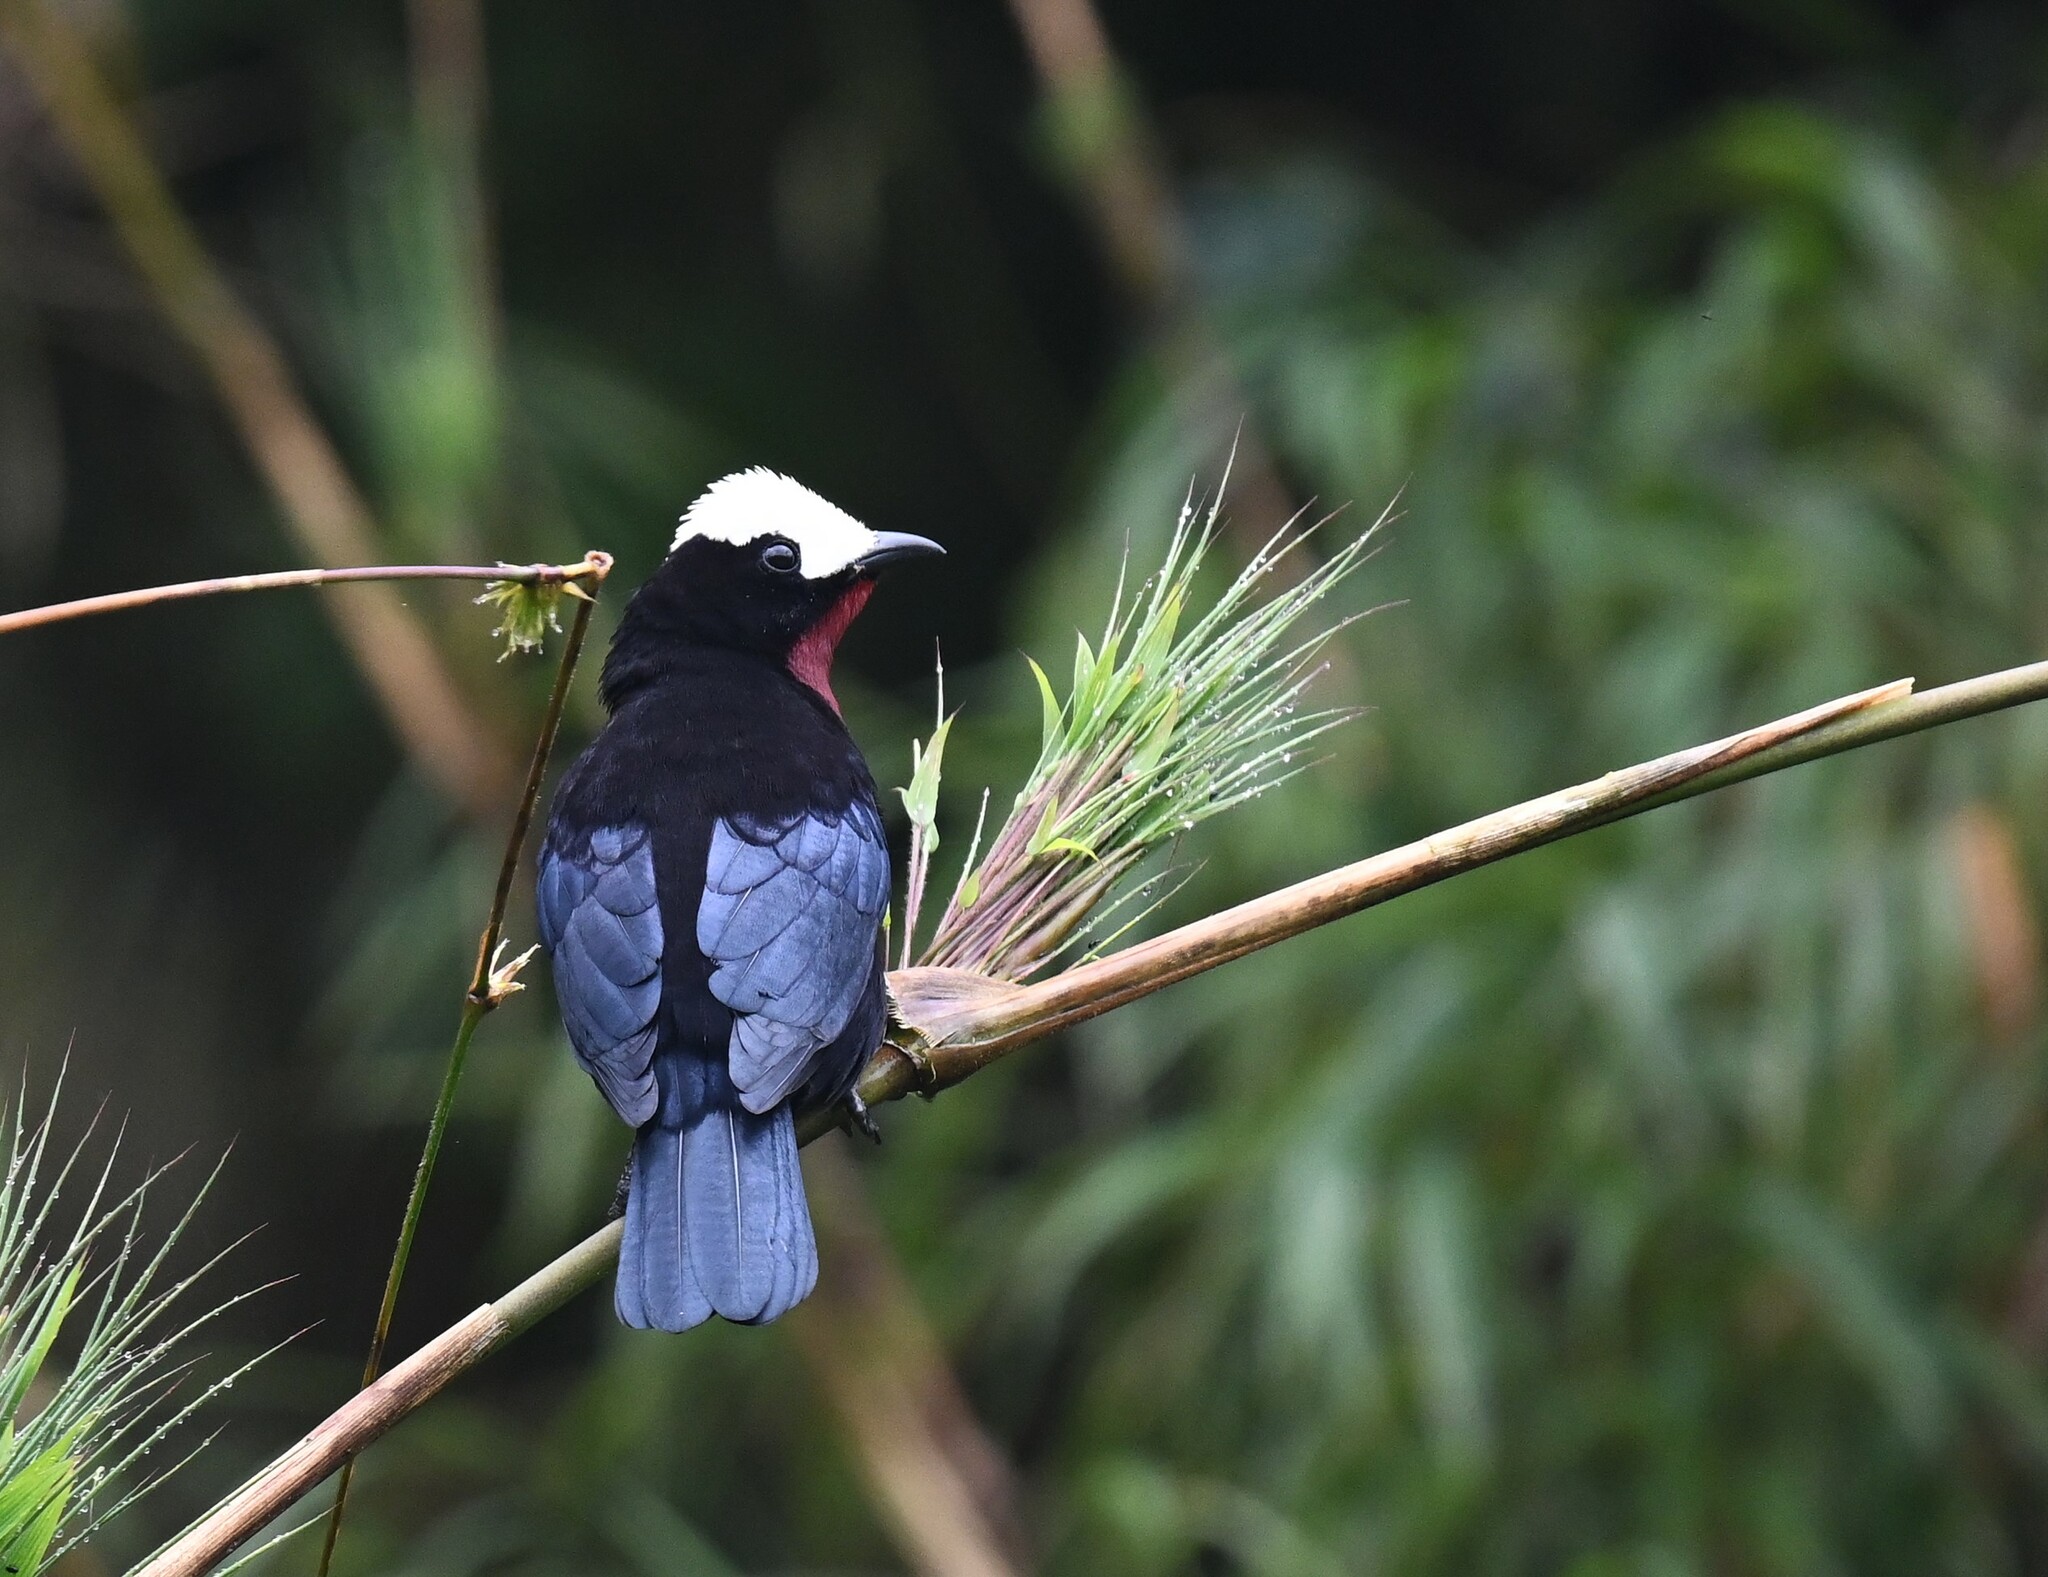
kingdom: Animalia
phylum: Chordata
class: Aves
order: Passeriformes
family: Thraupidae
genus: Sericossypha
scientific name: Sericossypha albocristata
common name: White-capped tanager
